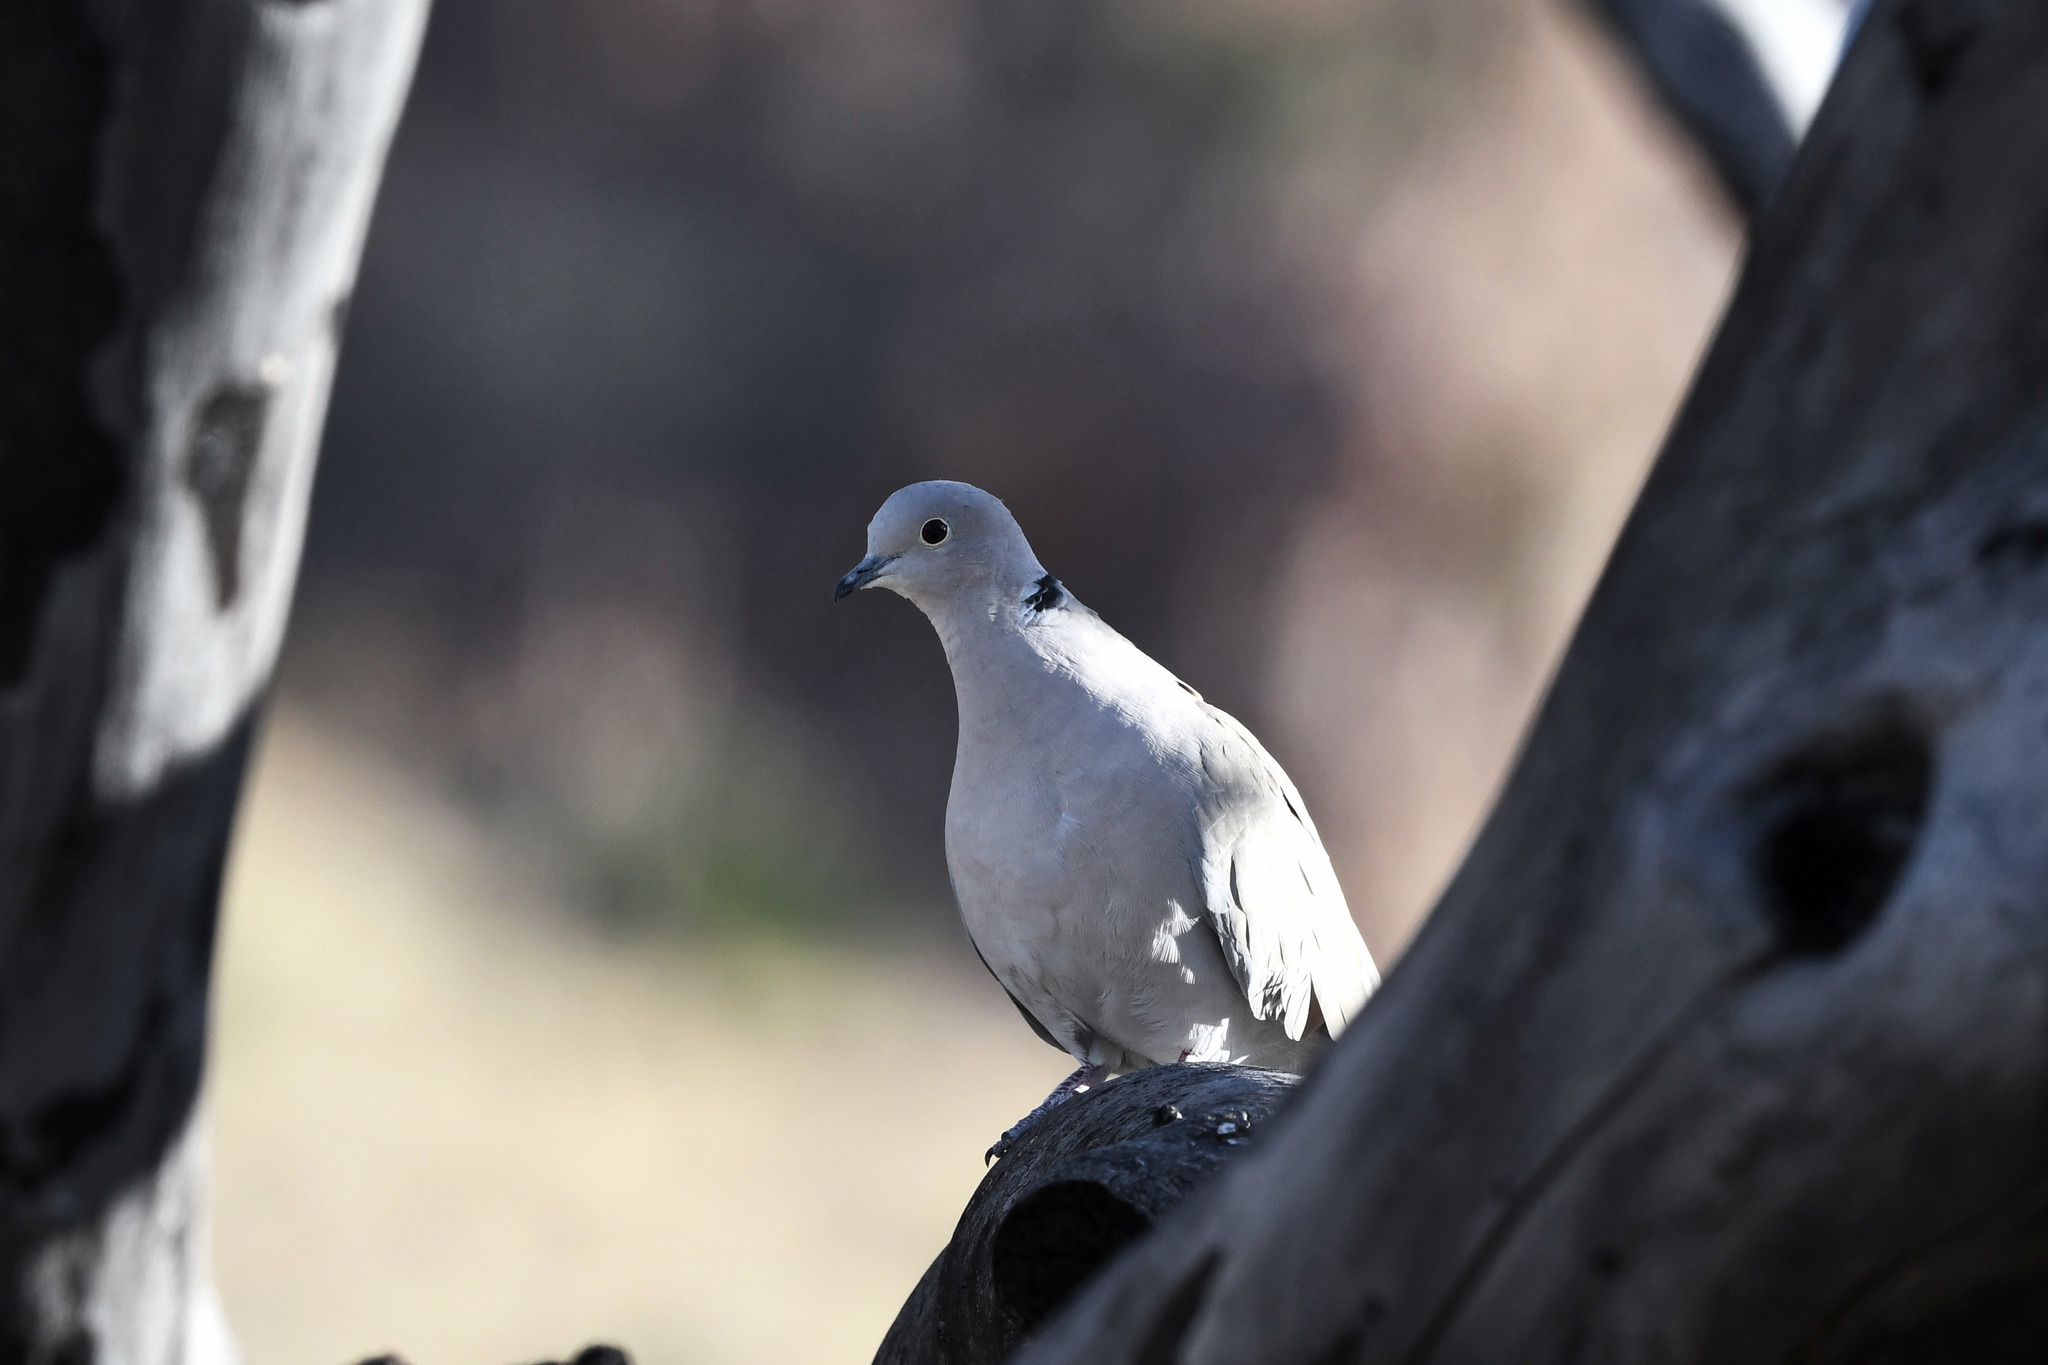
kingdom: Animalia
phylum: Chordata
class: Aves
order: Columbiformes
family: Columbidae
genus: Streptopelia
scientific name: Streptopelia decaocto
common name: Eurasian collared dove
